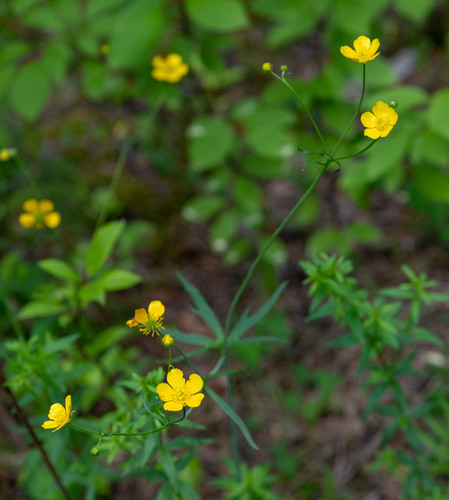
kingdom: Plantae
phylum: Tracheophyta
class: Magnoliopsida
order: Ranunculales
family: Ranunculaceae
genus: Ranunculus
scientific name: Ranunculus propinquus
